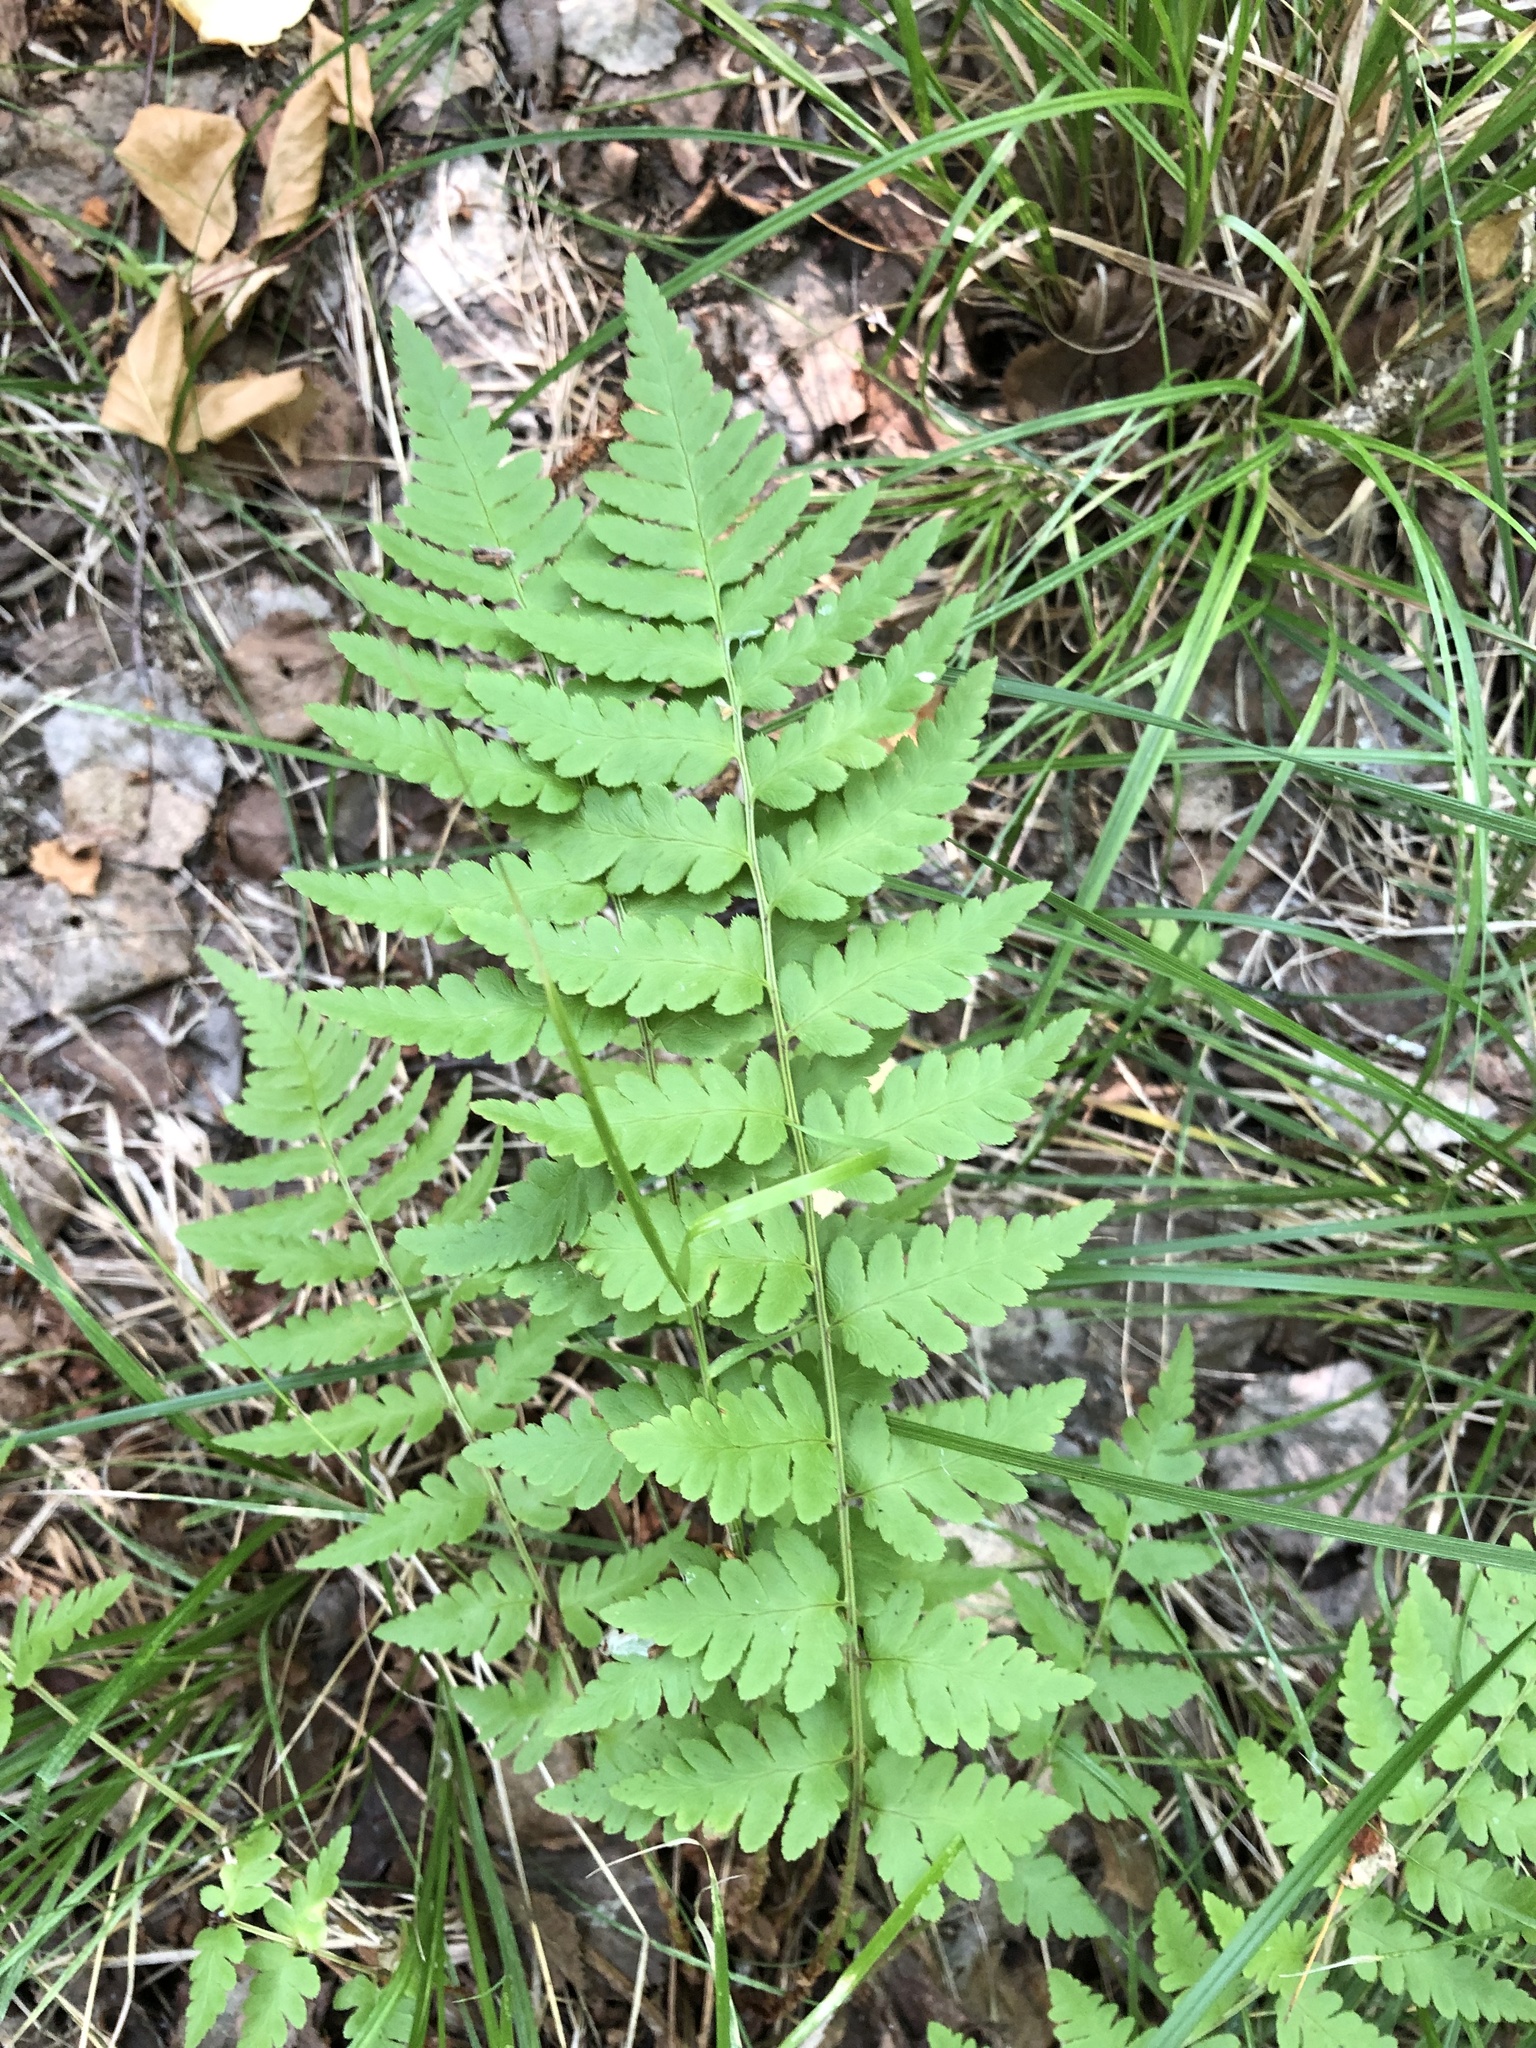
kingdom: Plantae
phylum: Tracheophyta
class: Polypodiopsida
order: Polypodiales
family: Dryopteridaceae
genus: Dryopteris
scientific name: Dryopteris cristata
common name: Crested wood fern
